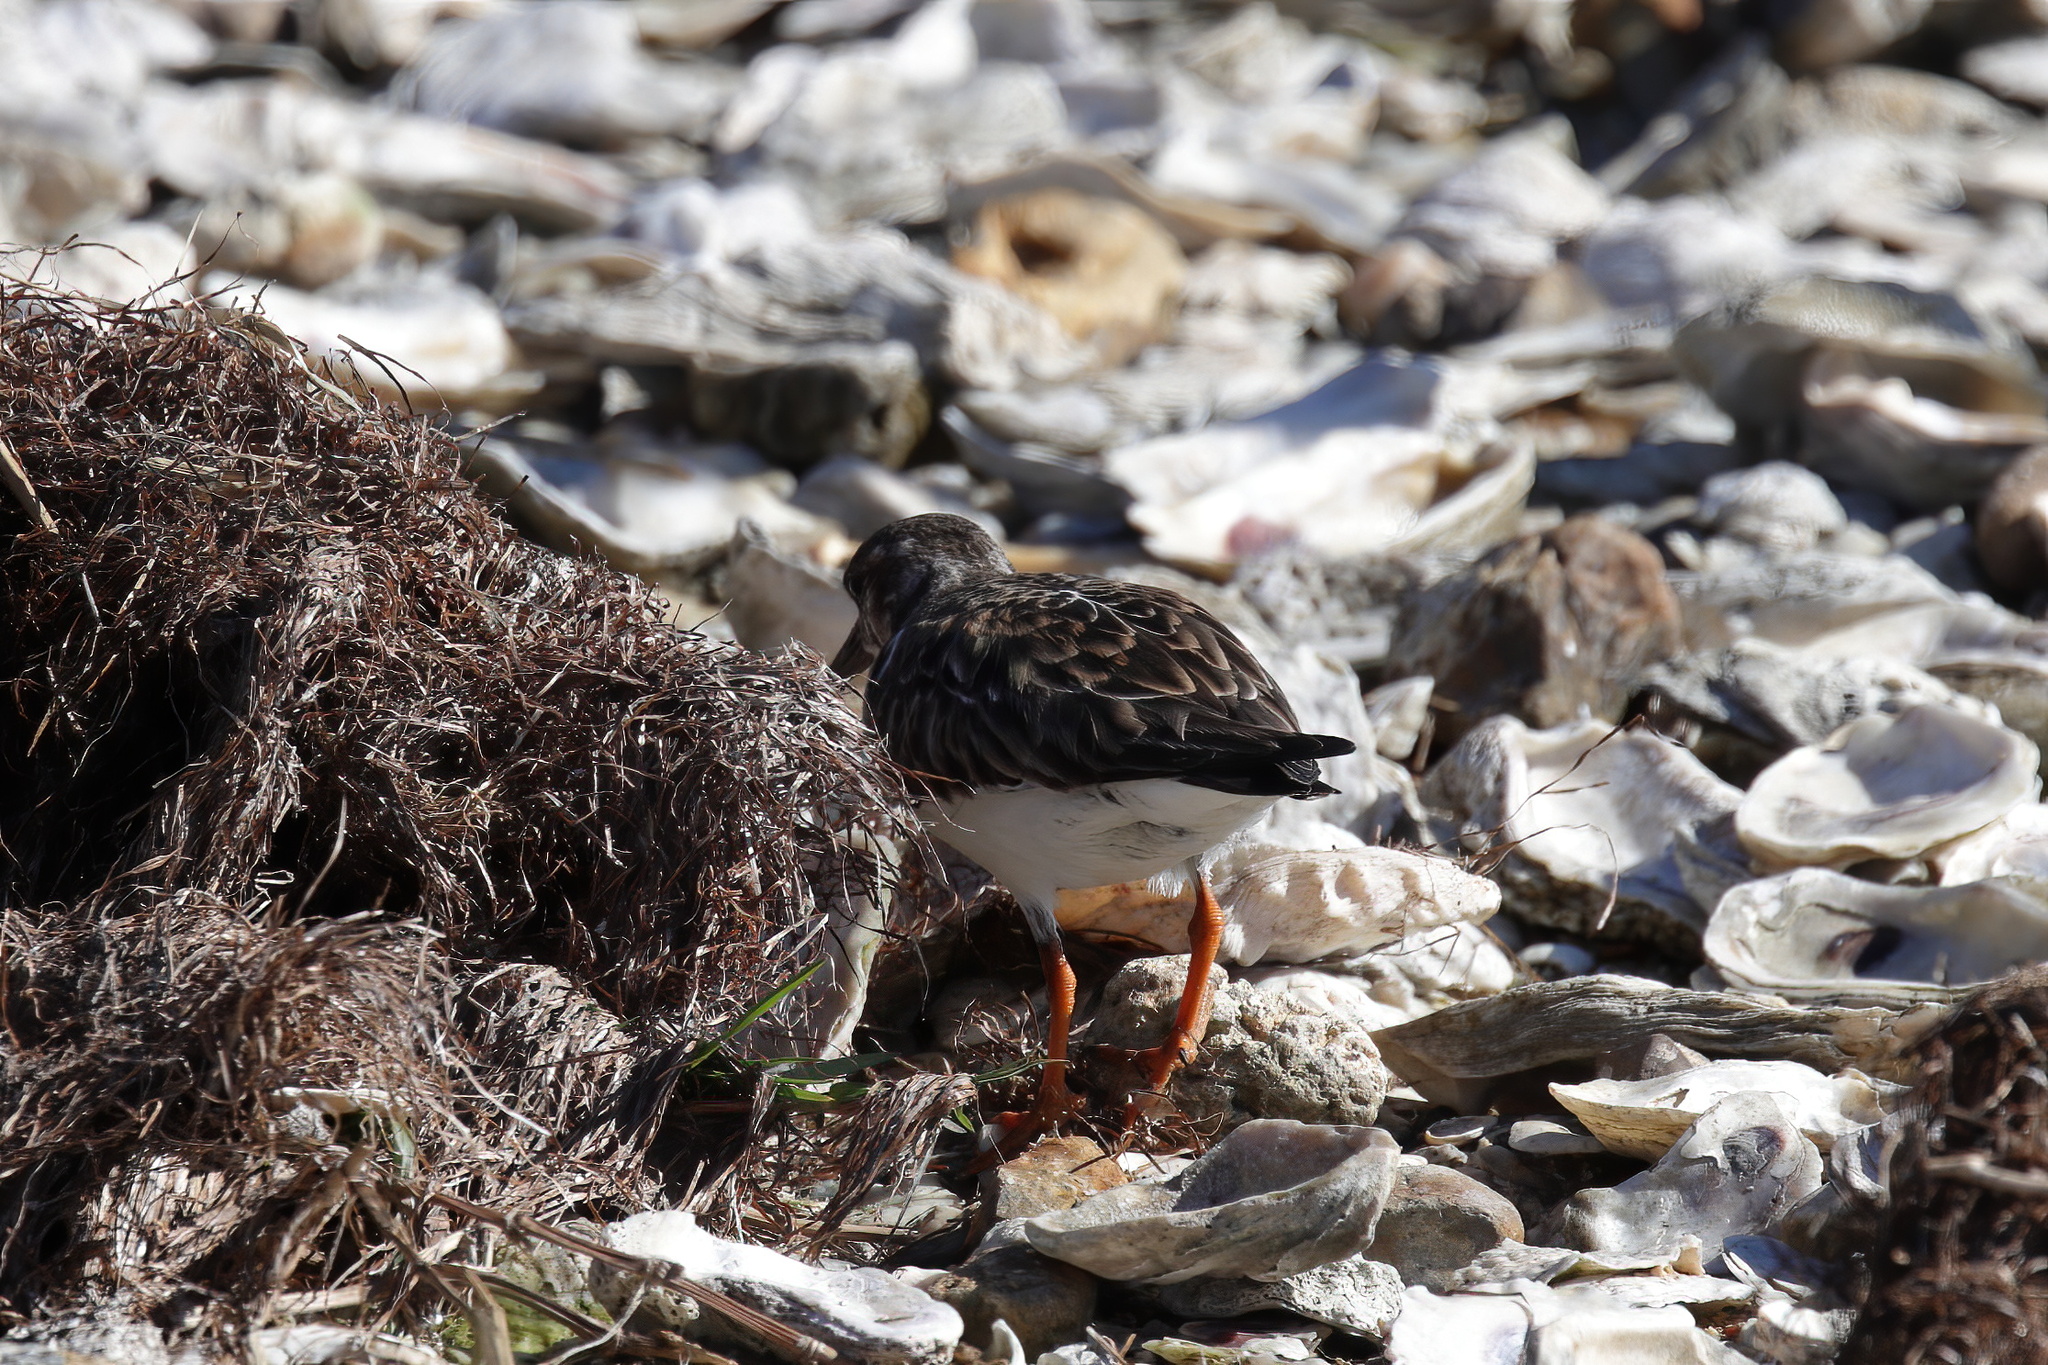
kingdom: Animalia
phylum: Chordata
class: Aves
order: Charadriiformes
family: Scolopacidae
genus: Arenaria
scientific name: Arenaria interpres
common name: Ruddy turnstone
